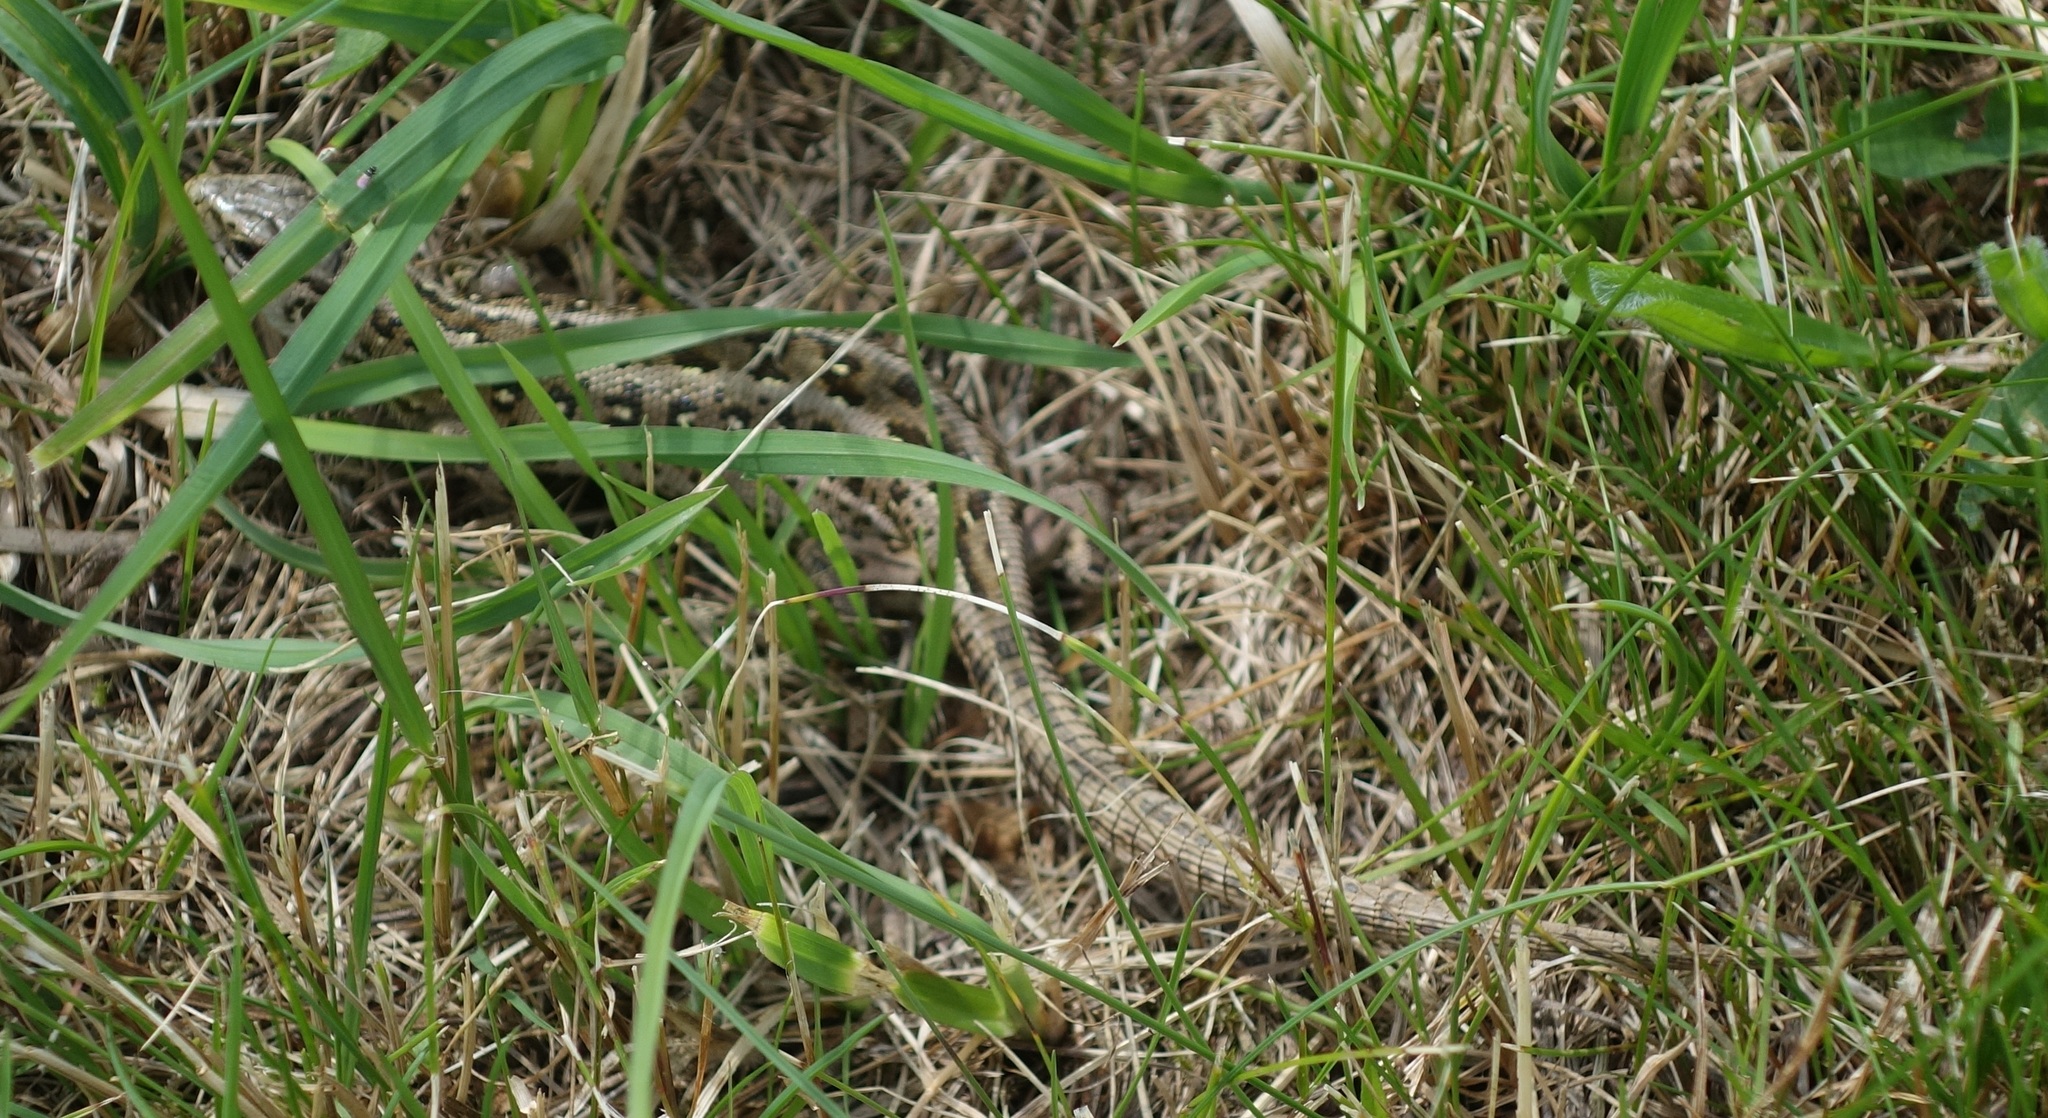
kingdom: Animalia
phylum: Chordata
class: Squamata
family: Lacertidae
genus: Lacerta
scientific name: Lacerta agilis
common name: Sand lizard
